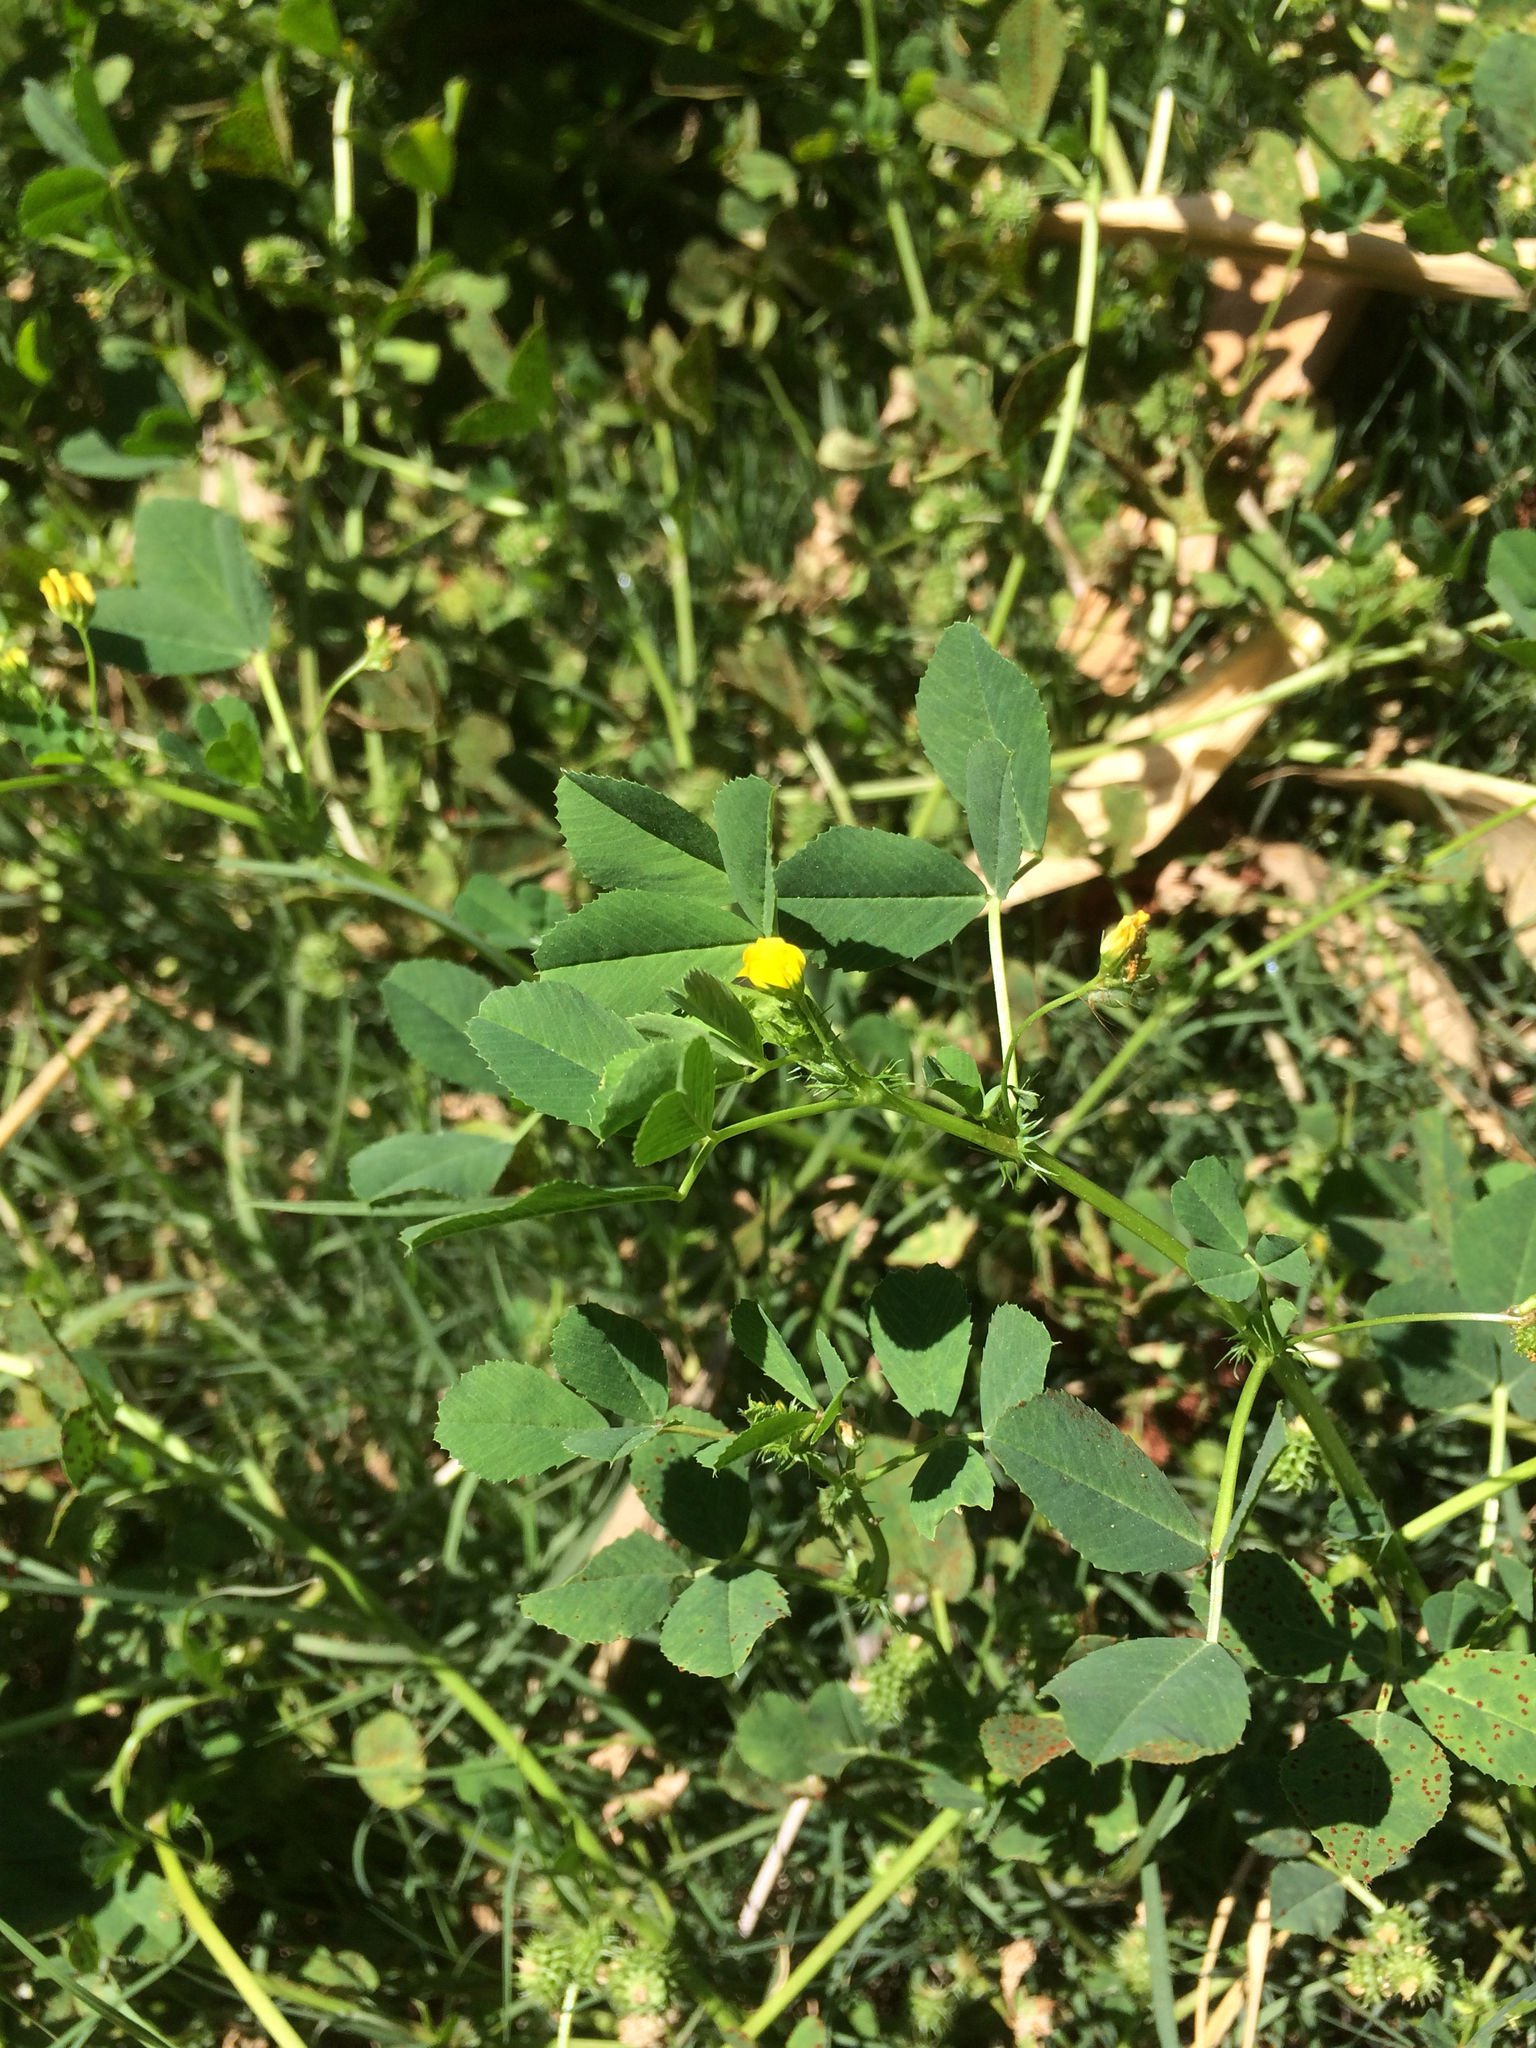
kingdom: Plantae
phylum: Tracheophyta
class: Magnoliopsida
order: Fabales
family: Fabaceae
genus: Medicago
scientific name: Medicago polymorpha
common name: Burclover
